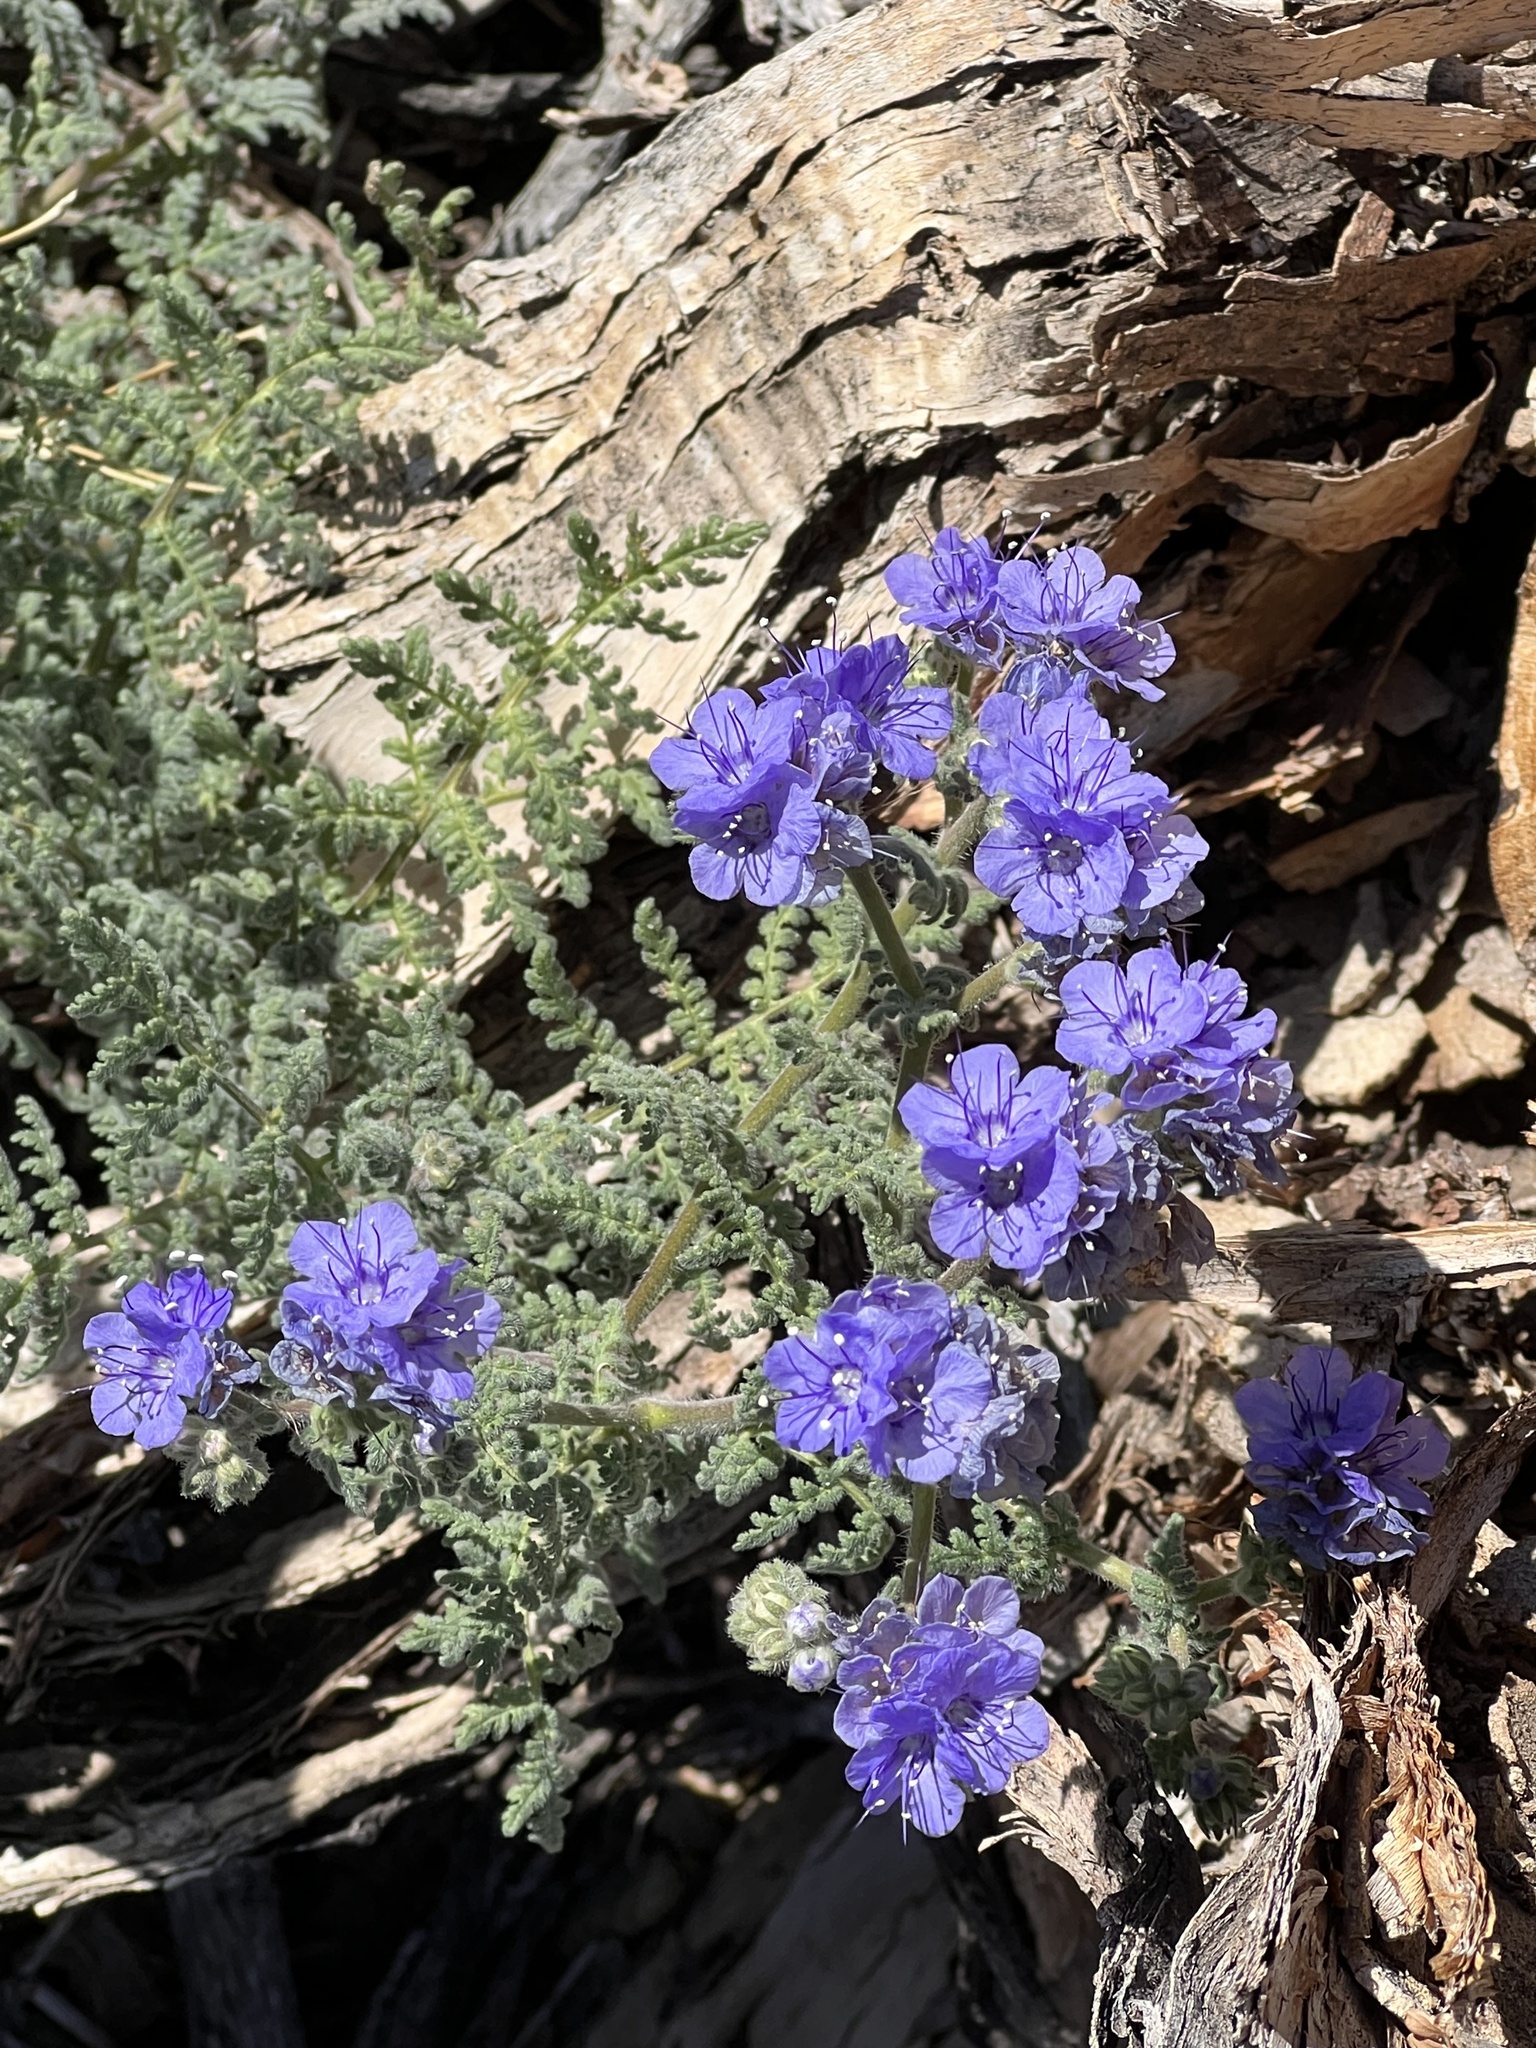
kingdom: Plantae
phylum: Tracheophyta
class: Magnoliopsida
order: Boraginales
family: Hydrophyllaceae
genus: Phacelia
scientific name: Phacelia distans
